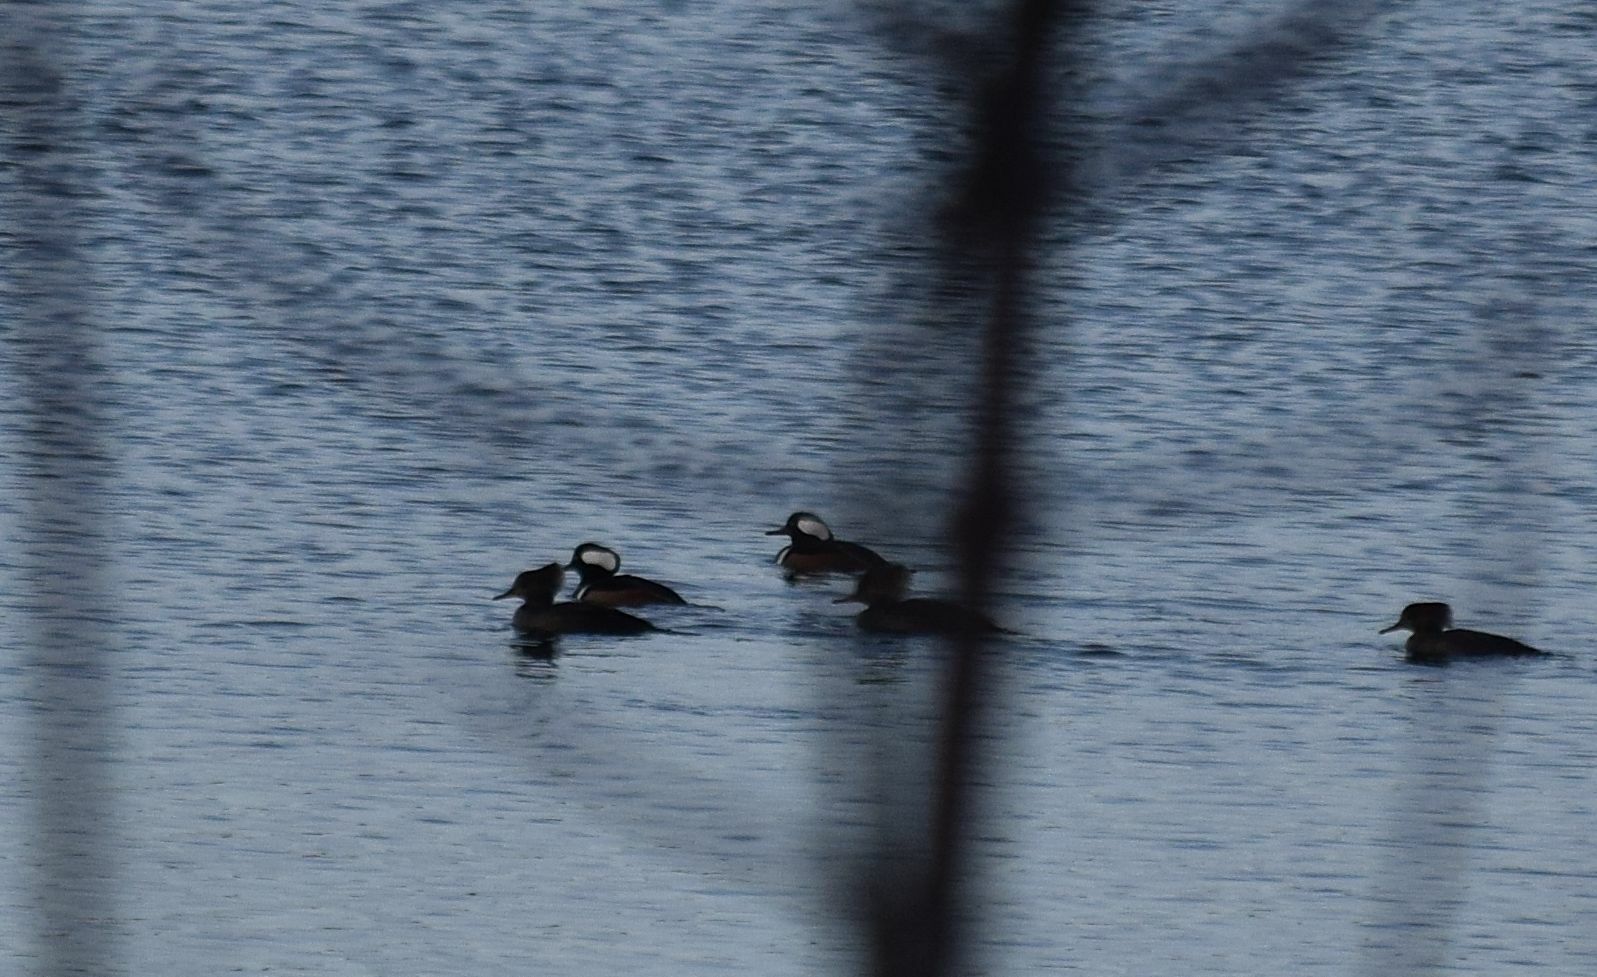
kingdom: Animalia
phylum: Chordata
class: Aves
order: Anseriformes
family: Anatidae
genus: Lophodytes
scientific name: Lophodytes cucullatus
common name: Hooded merganser
